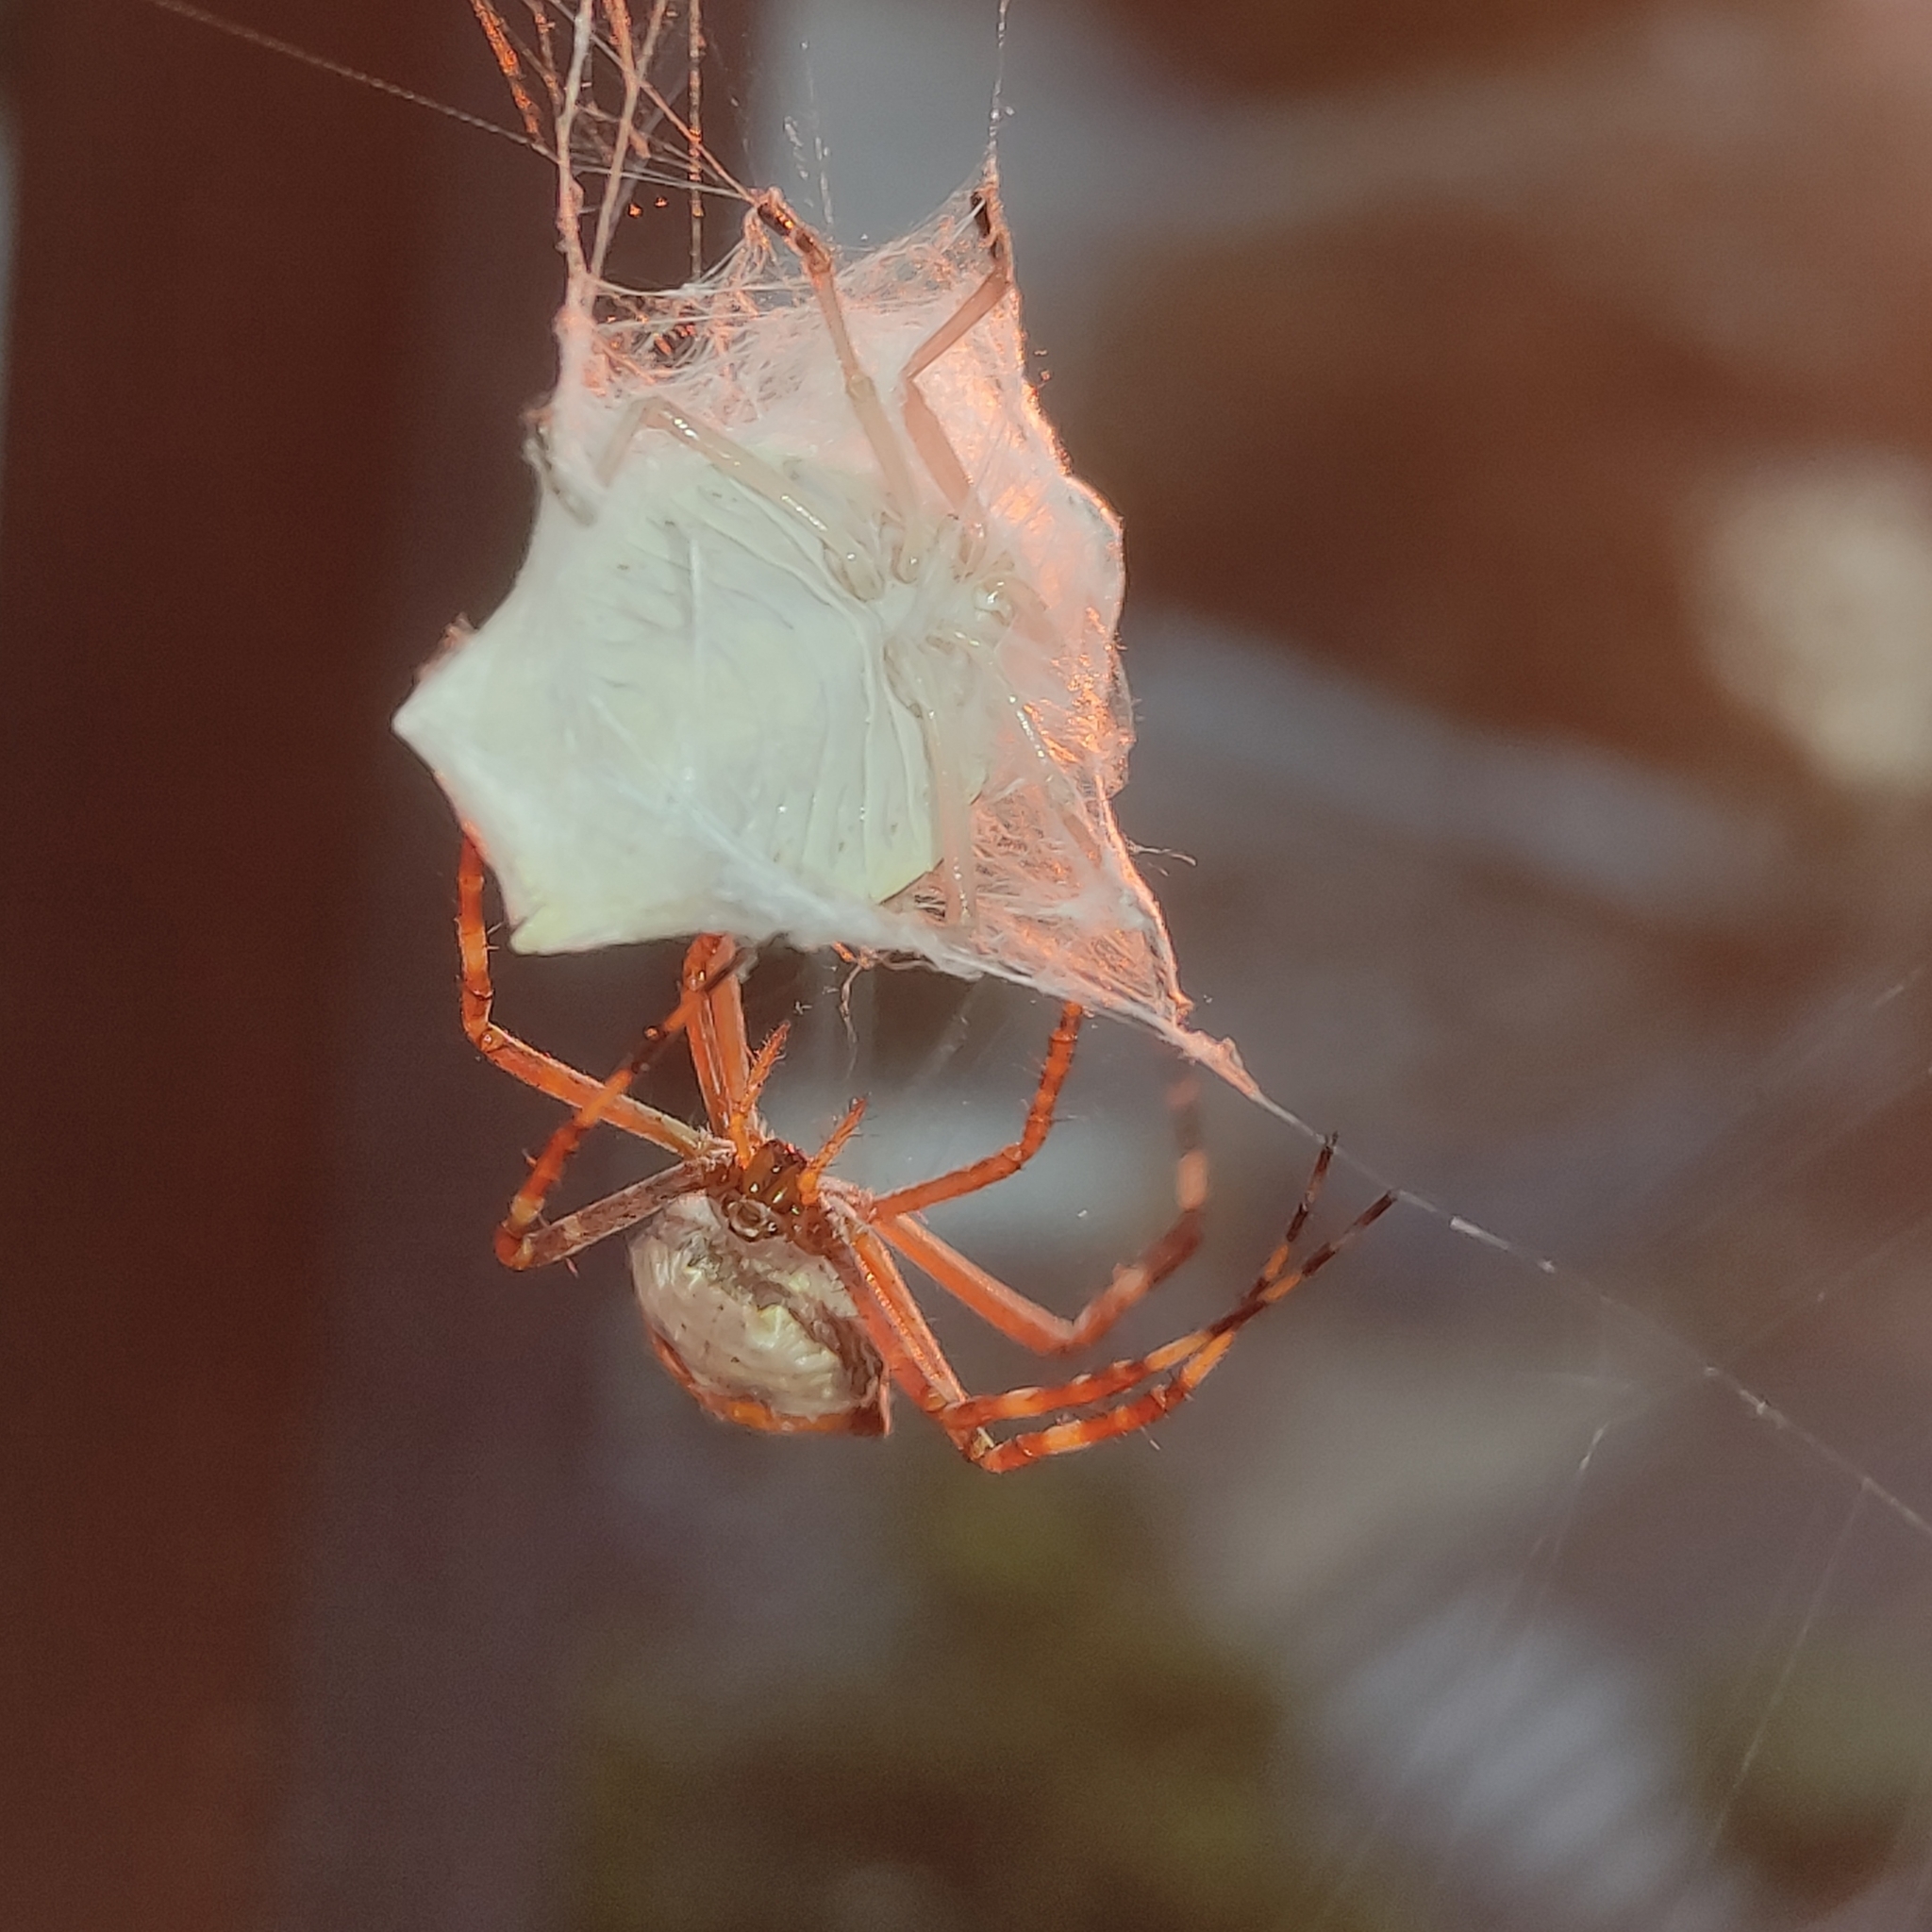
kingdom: Animalia
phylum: Arthropoda
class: Arachnida
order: Araneae
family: Araneidae
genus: Argiope
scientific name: Argiope argentata
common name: Orb weavers
